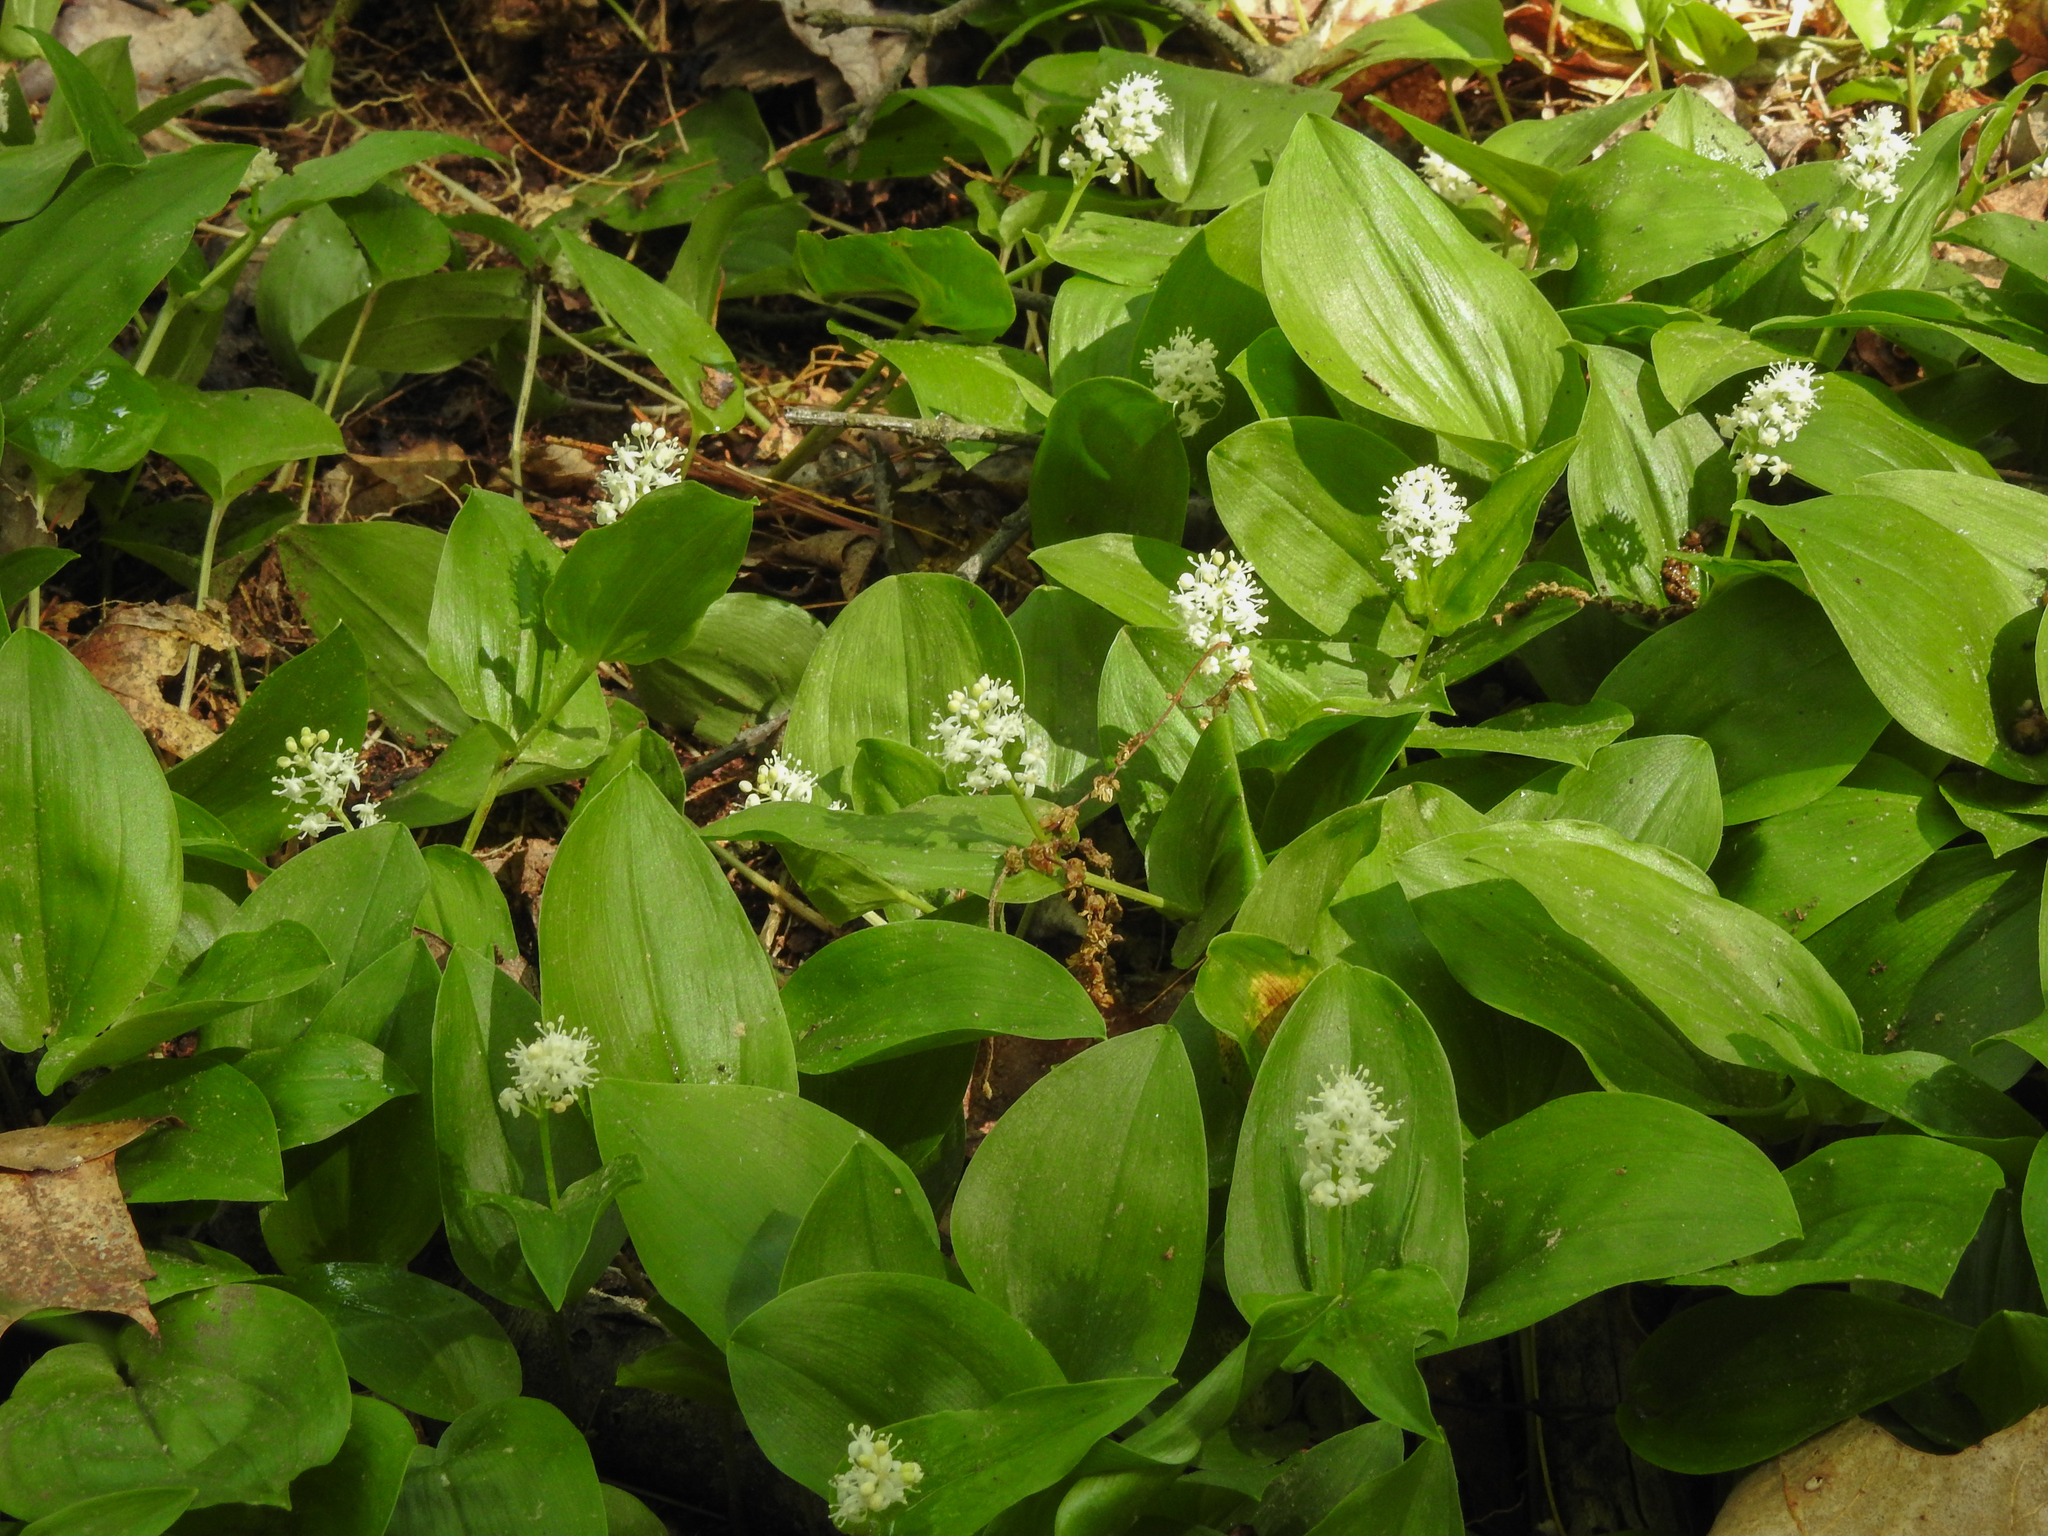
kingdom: Plantae
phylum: Tracheophyta
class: Liliopsida
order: Asparagales
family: Asparagaceae
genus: Maianthemum
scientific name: Maianthemum canadense
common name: False lily-of-the-valley
